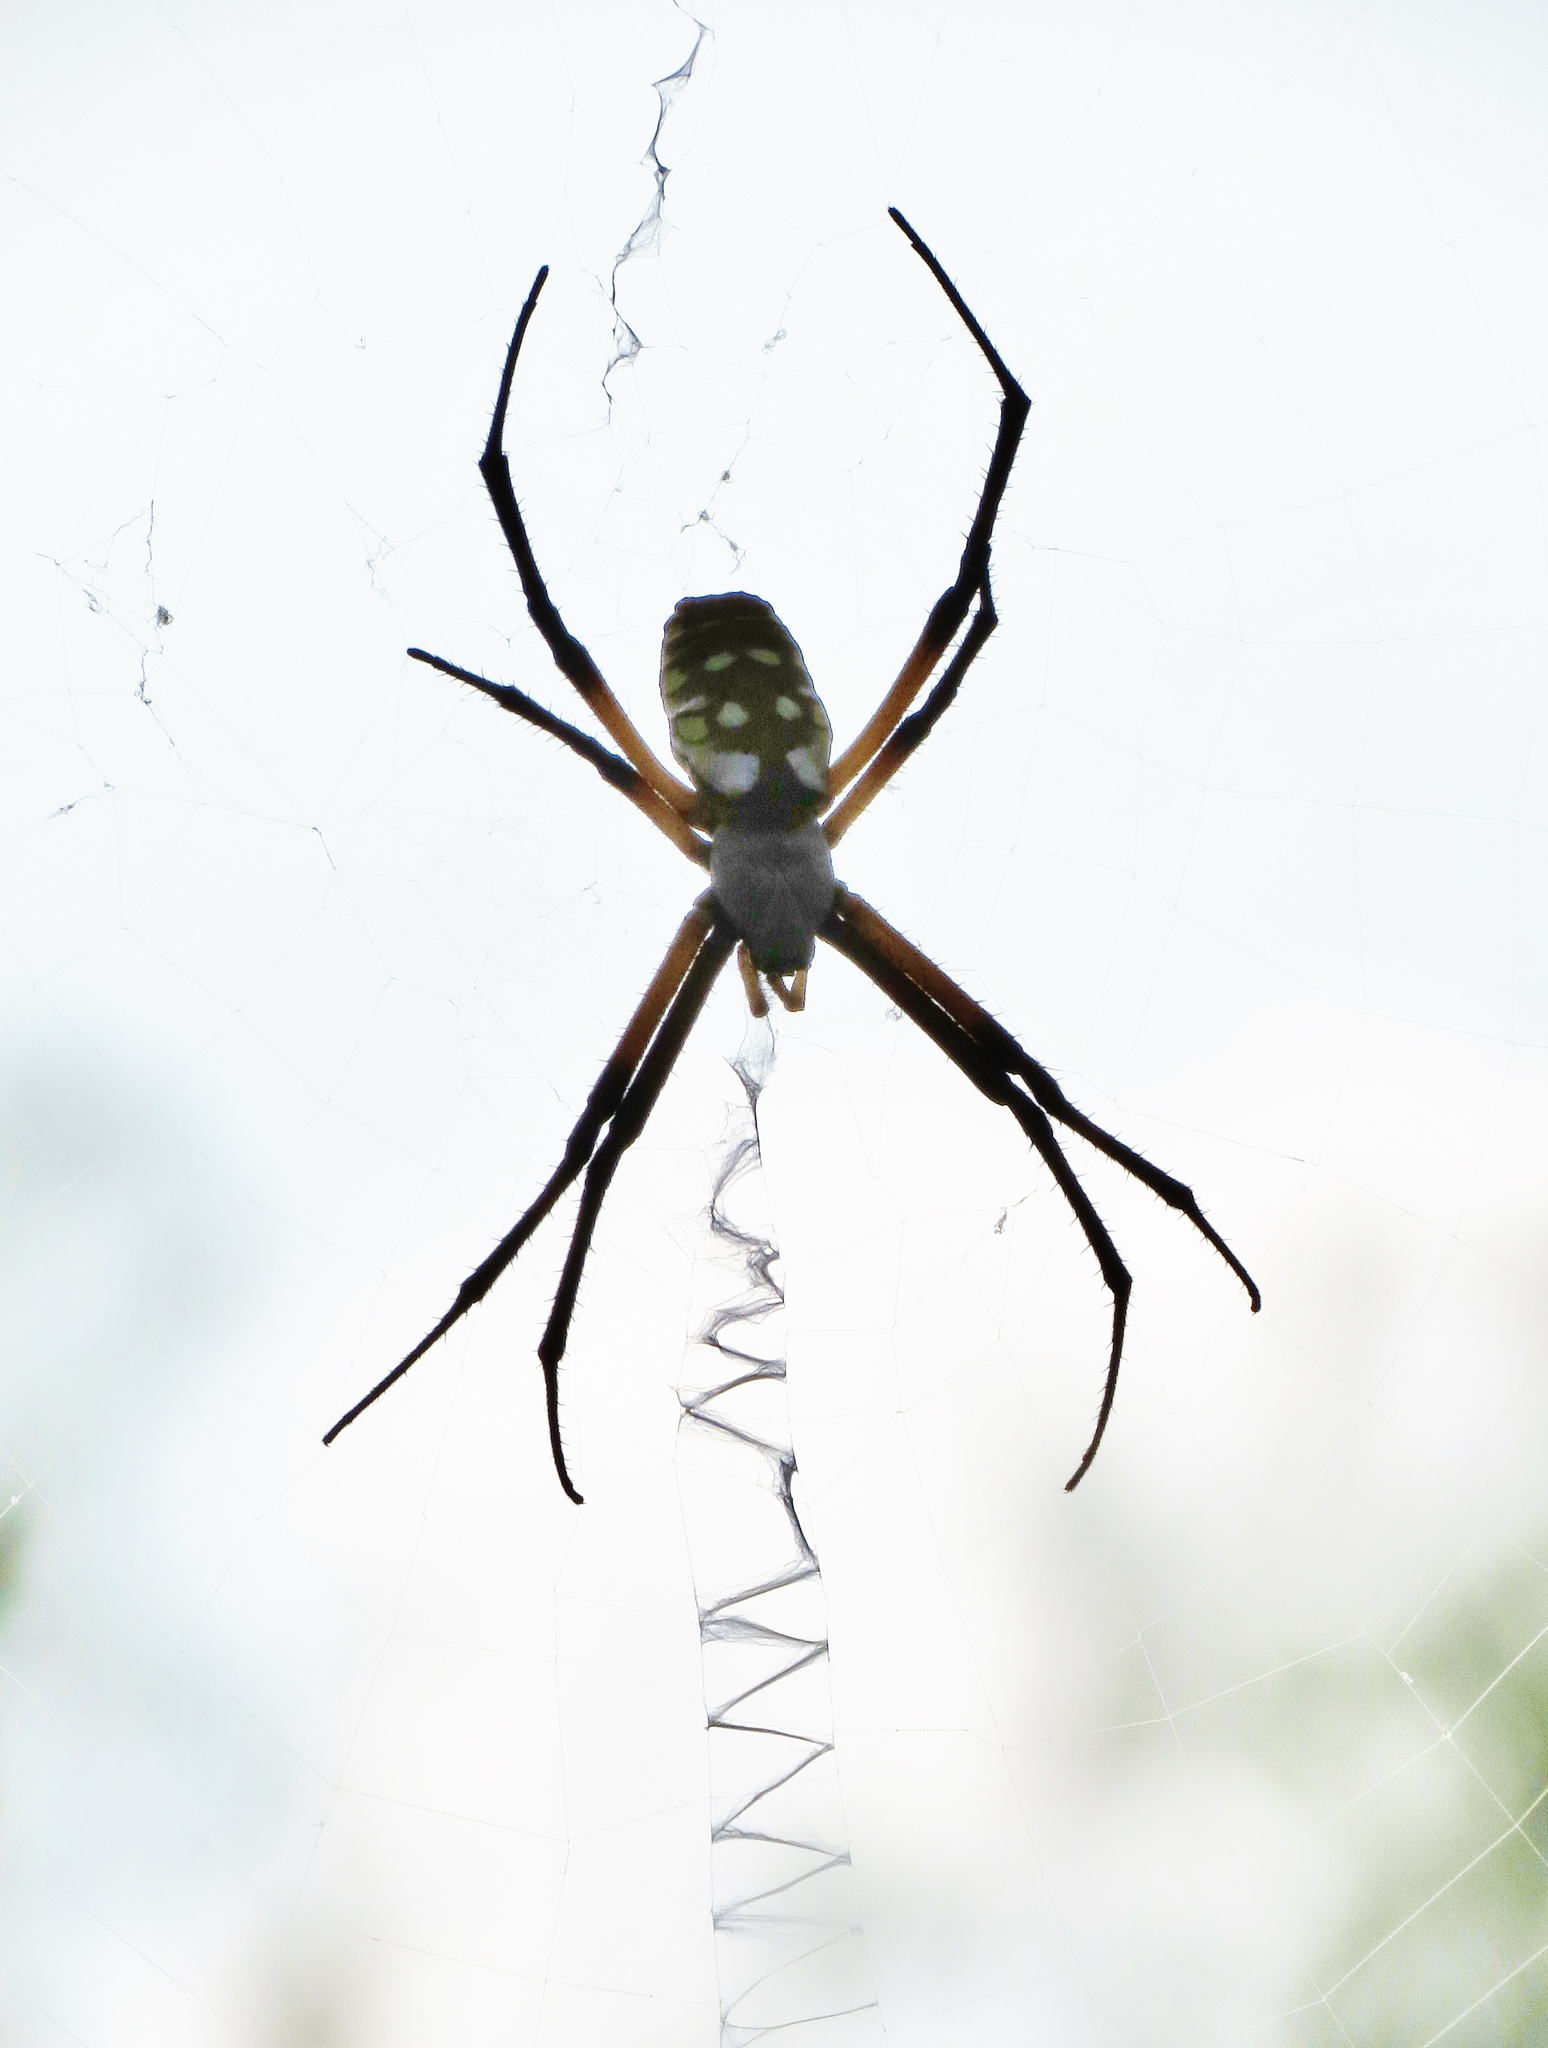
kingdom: Animalia
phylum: Arthropoda
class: Arachnida
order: Araneae
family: Araneidae
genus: Argiope
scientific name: Argiope aurantia
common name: Orb weavers
